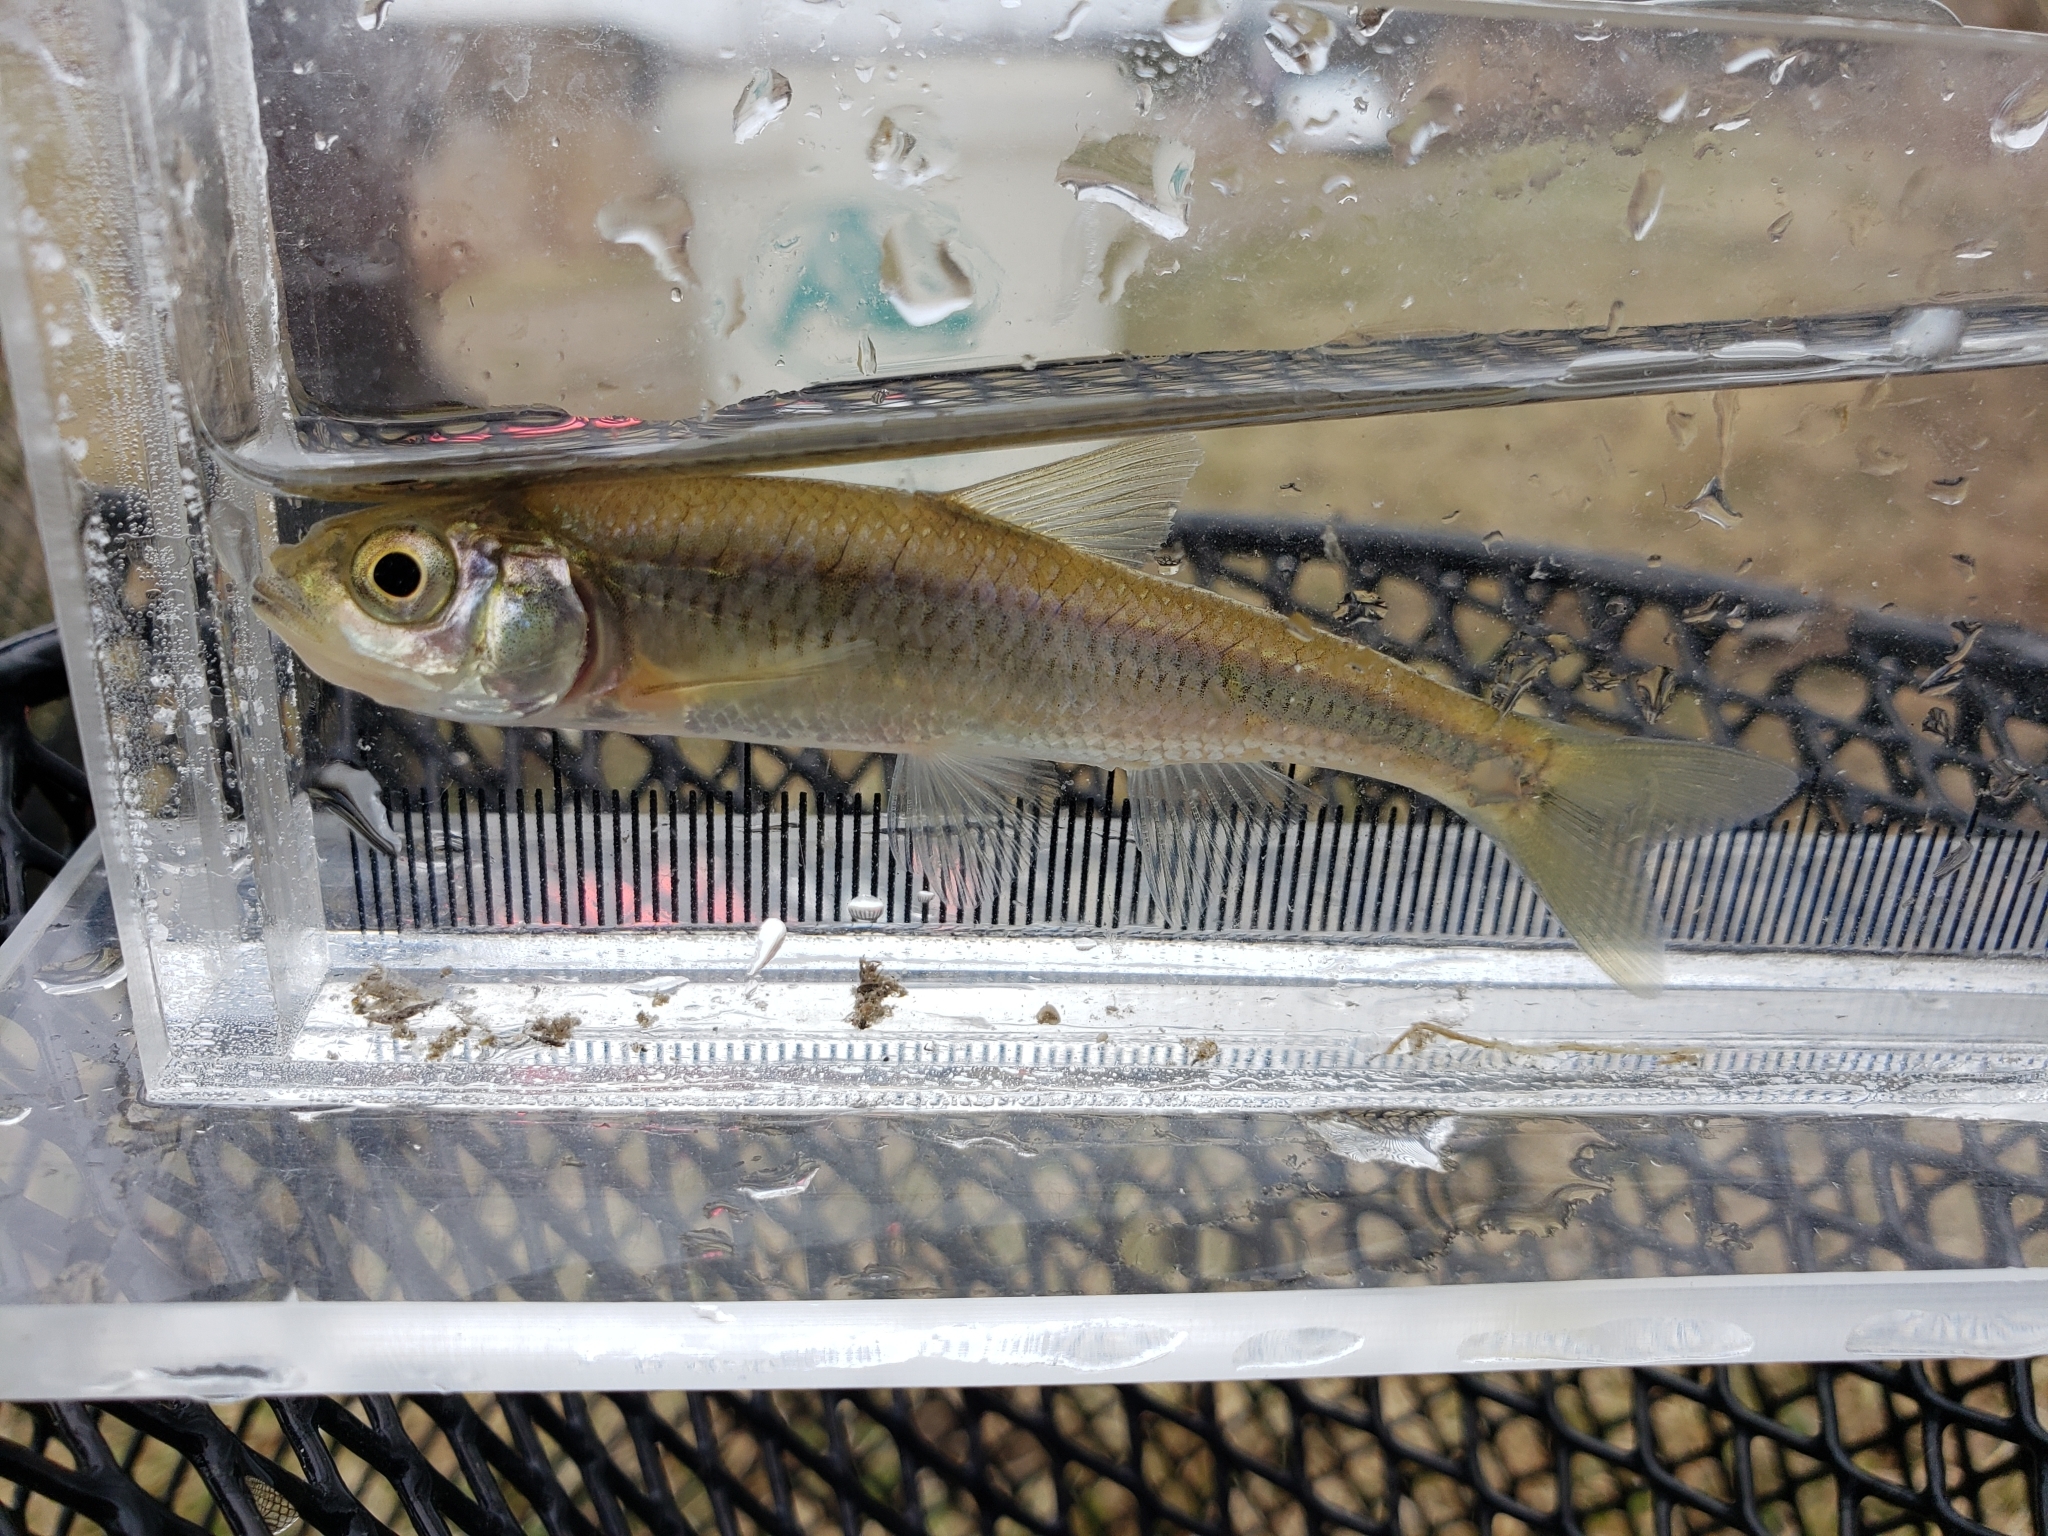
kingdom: Animalia
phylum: Chordata
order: Cypriniformes
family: Cyprinidae
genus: Luxilus
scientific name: Luxilus cornutus
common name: Common shiner
